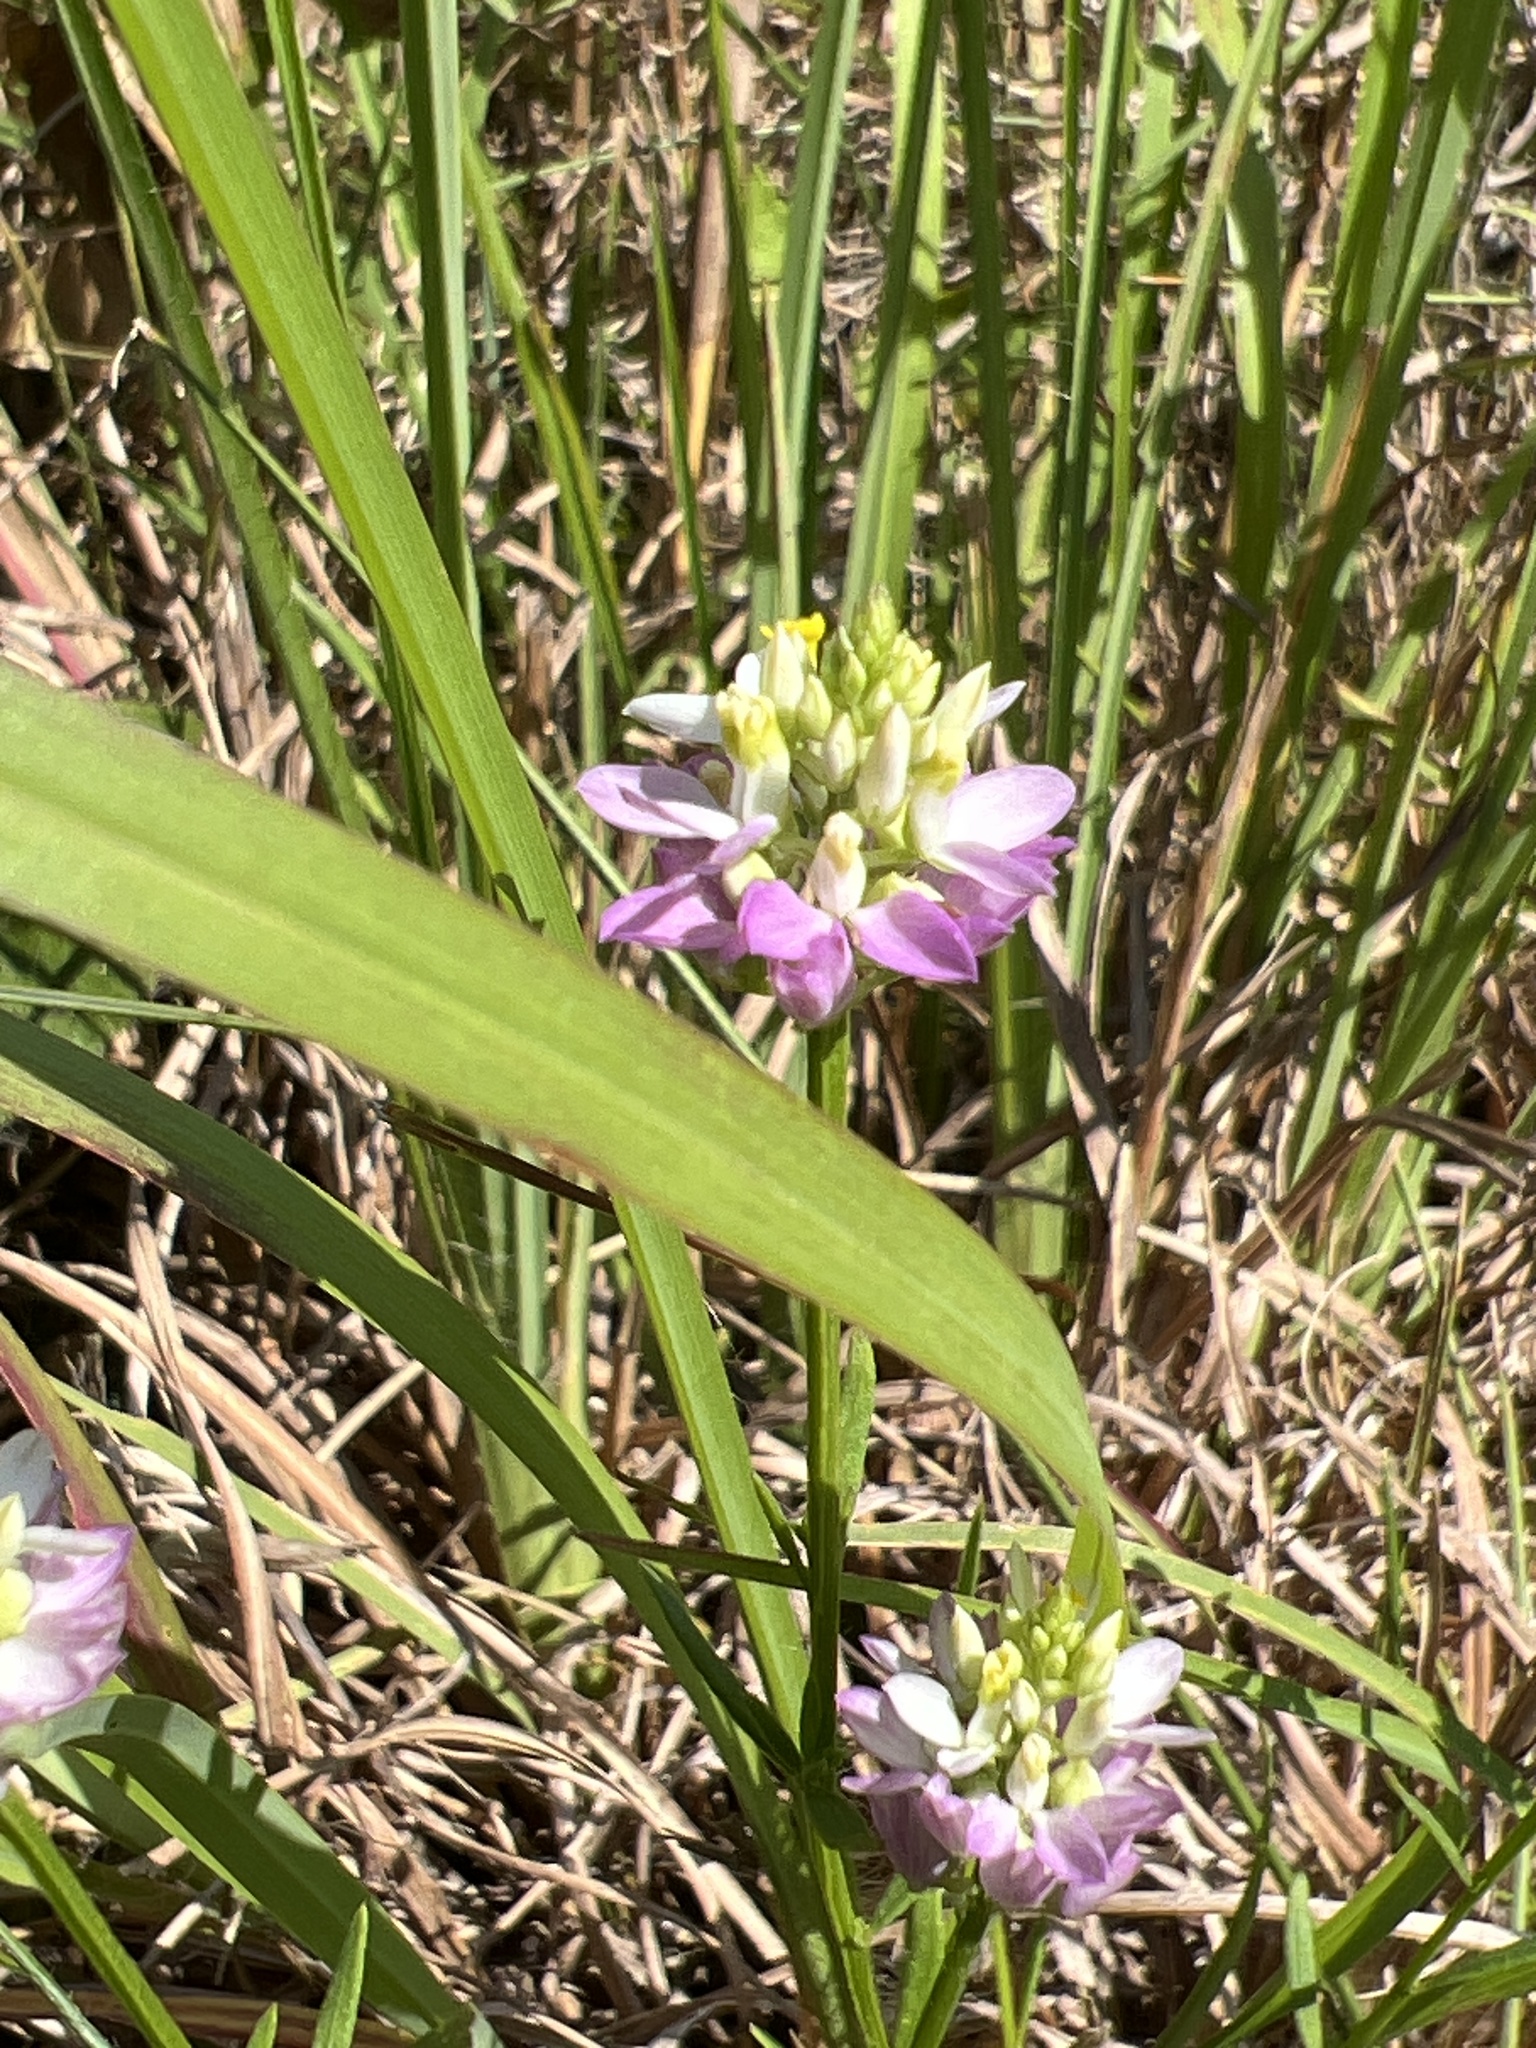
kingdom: Plantae
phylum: Tracheophyta
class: Magnoliopsida
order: Fabales
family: Polygalaceae
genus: Polygala
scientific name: Polygala curtissii
